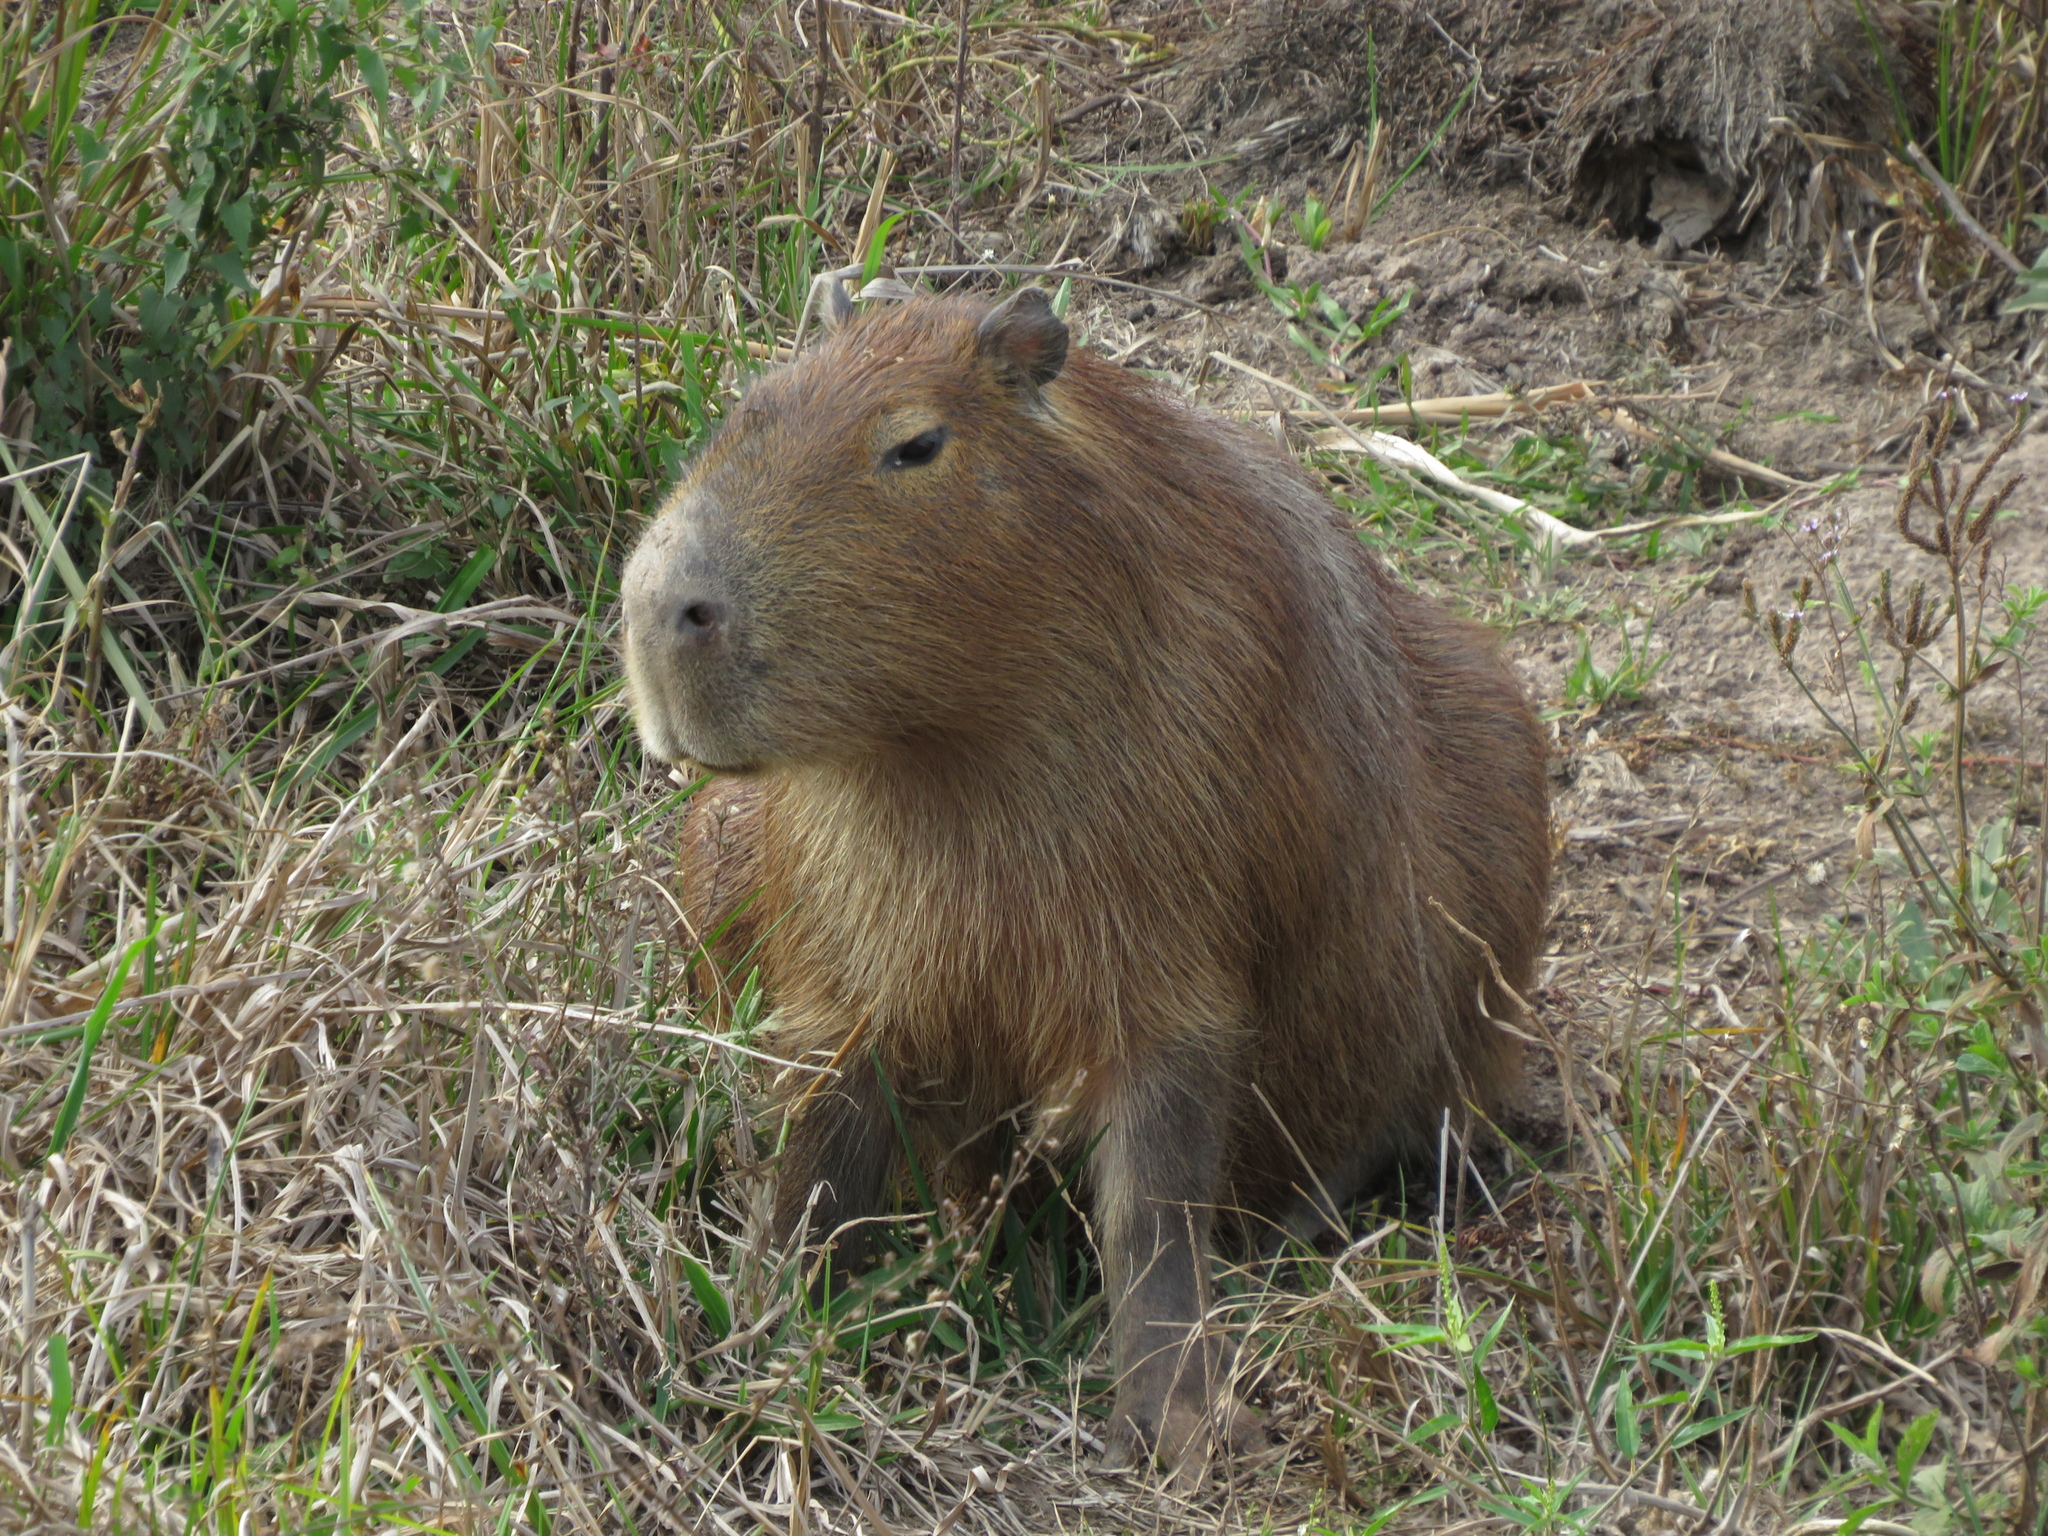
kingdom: Animalia
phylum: Chordata
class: Mammalia
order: Rodentia
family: Caviidae
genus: Hydrochoerus
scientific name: Hydrochoerus hydrochaeris
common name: Capybara
